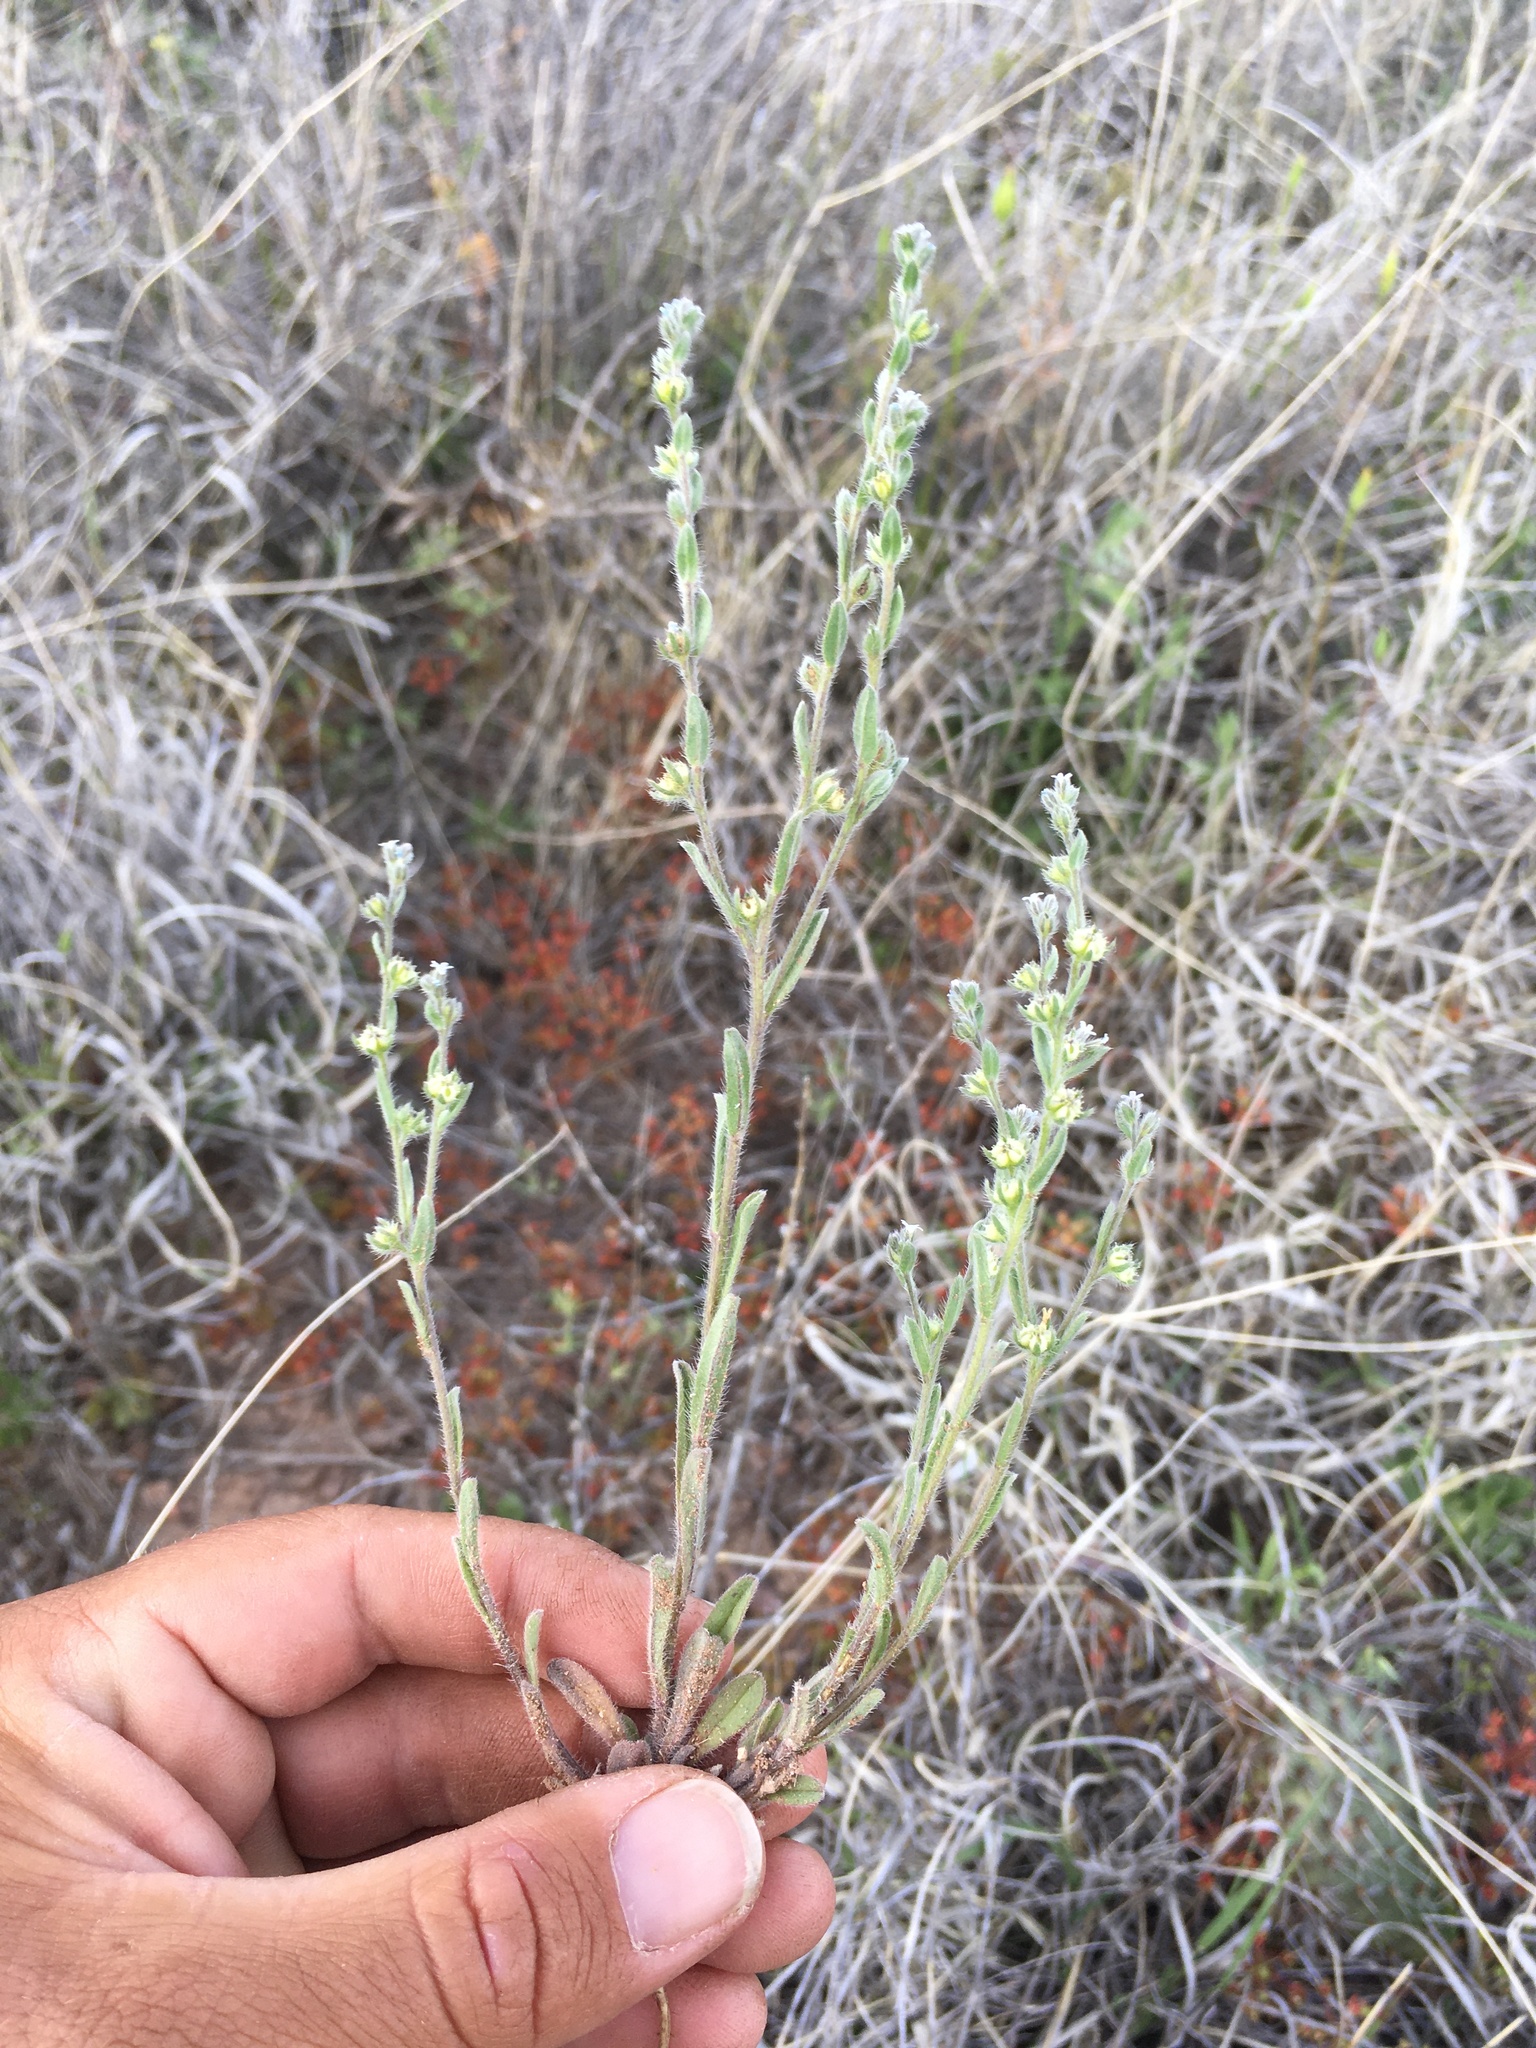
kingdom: Plantae
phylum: Tracheophyta
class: Magnoliopsida
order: Boraginales
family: Boraginaceae
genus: Lappula
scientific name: Lappula occidentalis
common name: Western stickseed
